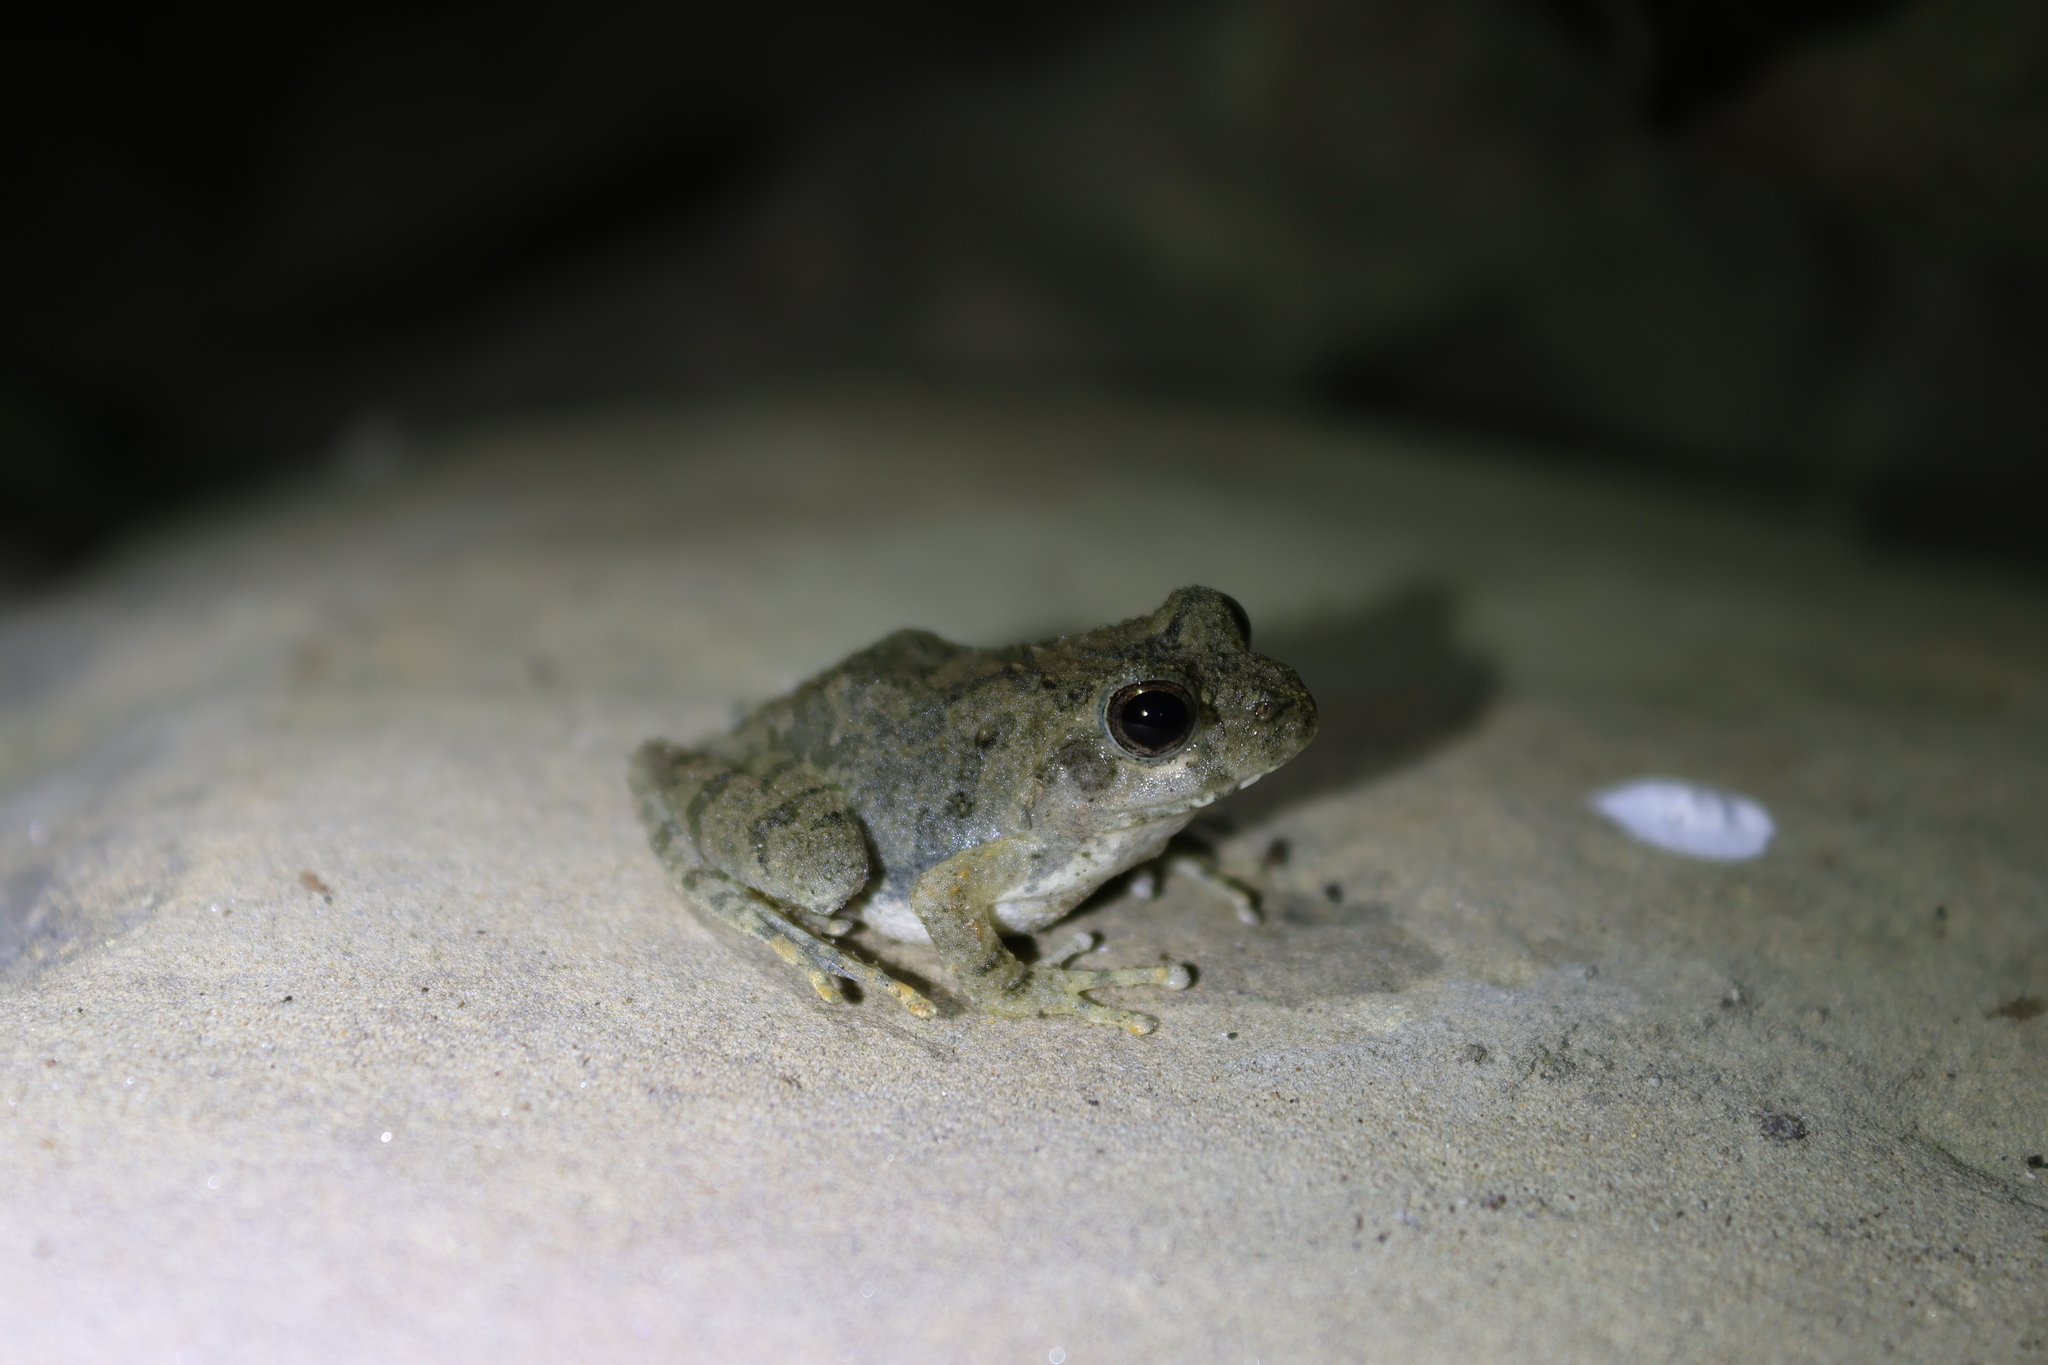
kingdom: Animalia
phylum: Chordata
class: Amphibia
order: Anura
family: Rhacophoridae
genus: Buergeria
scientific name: Buergeria otai
